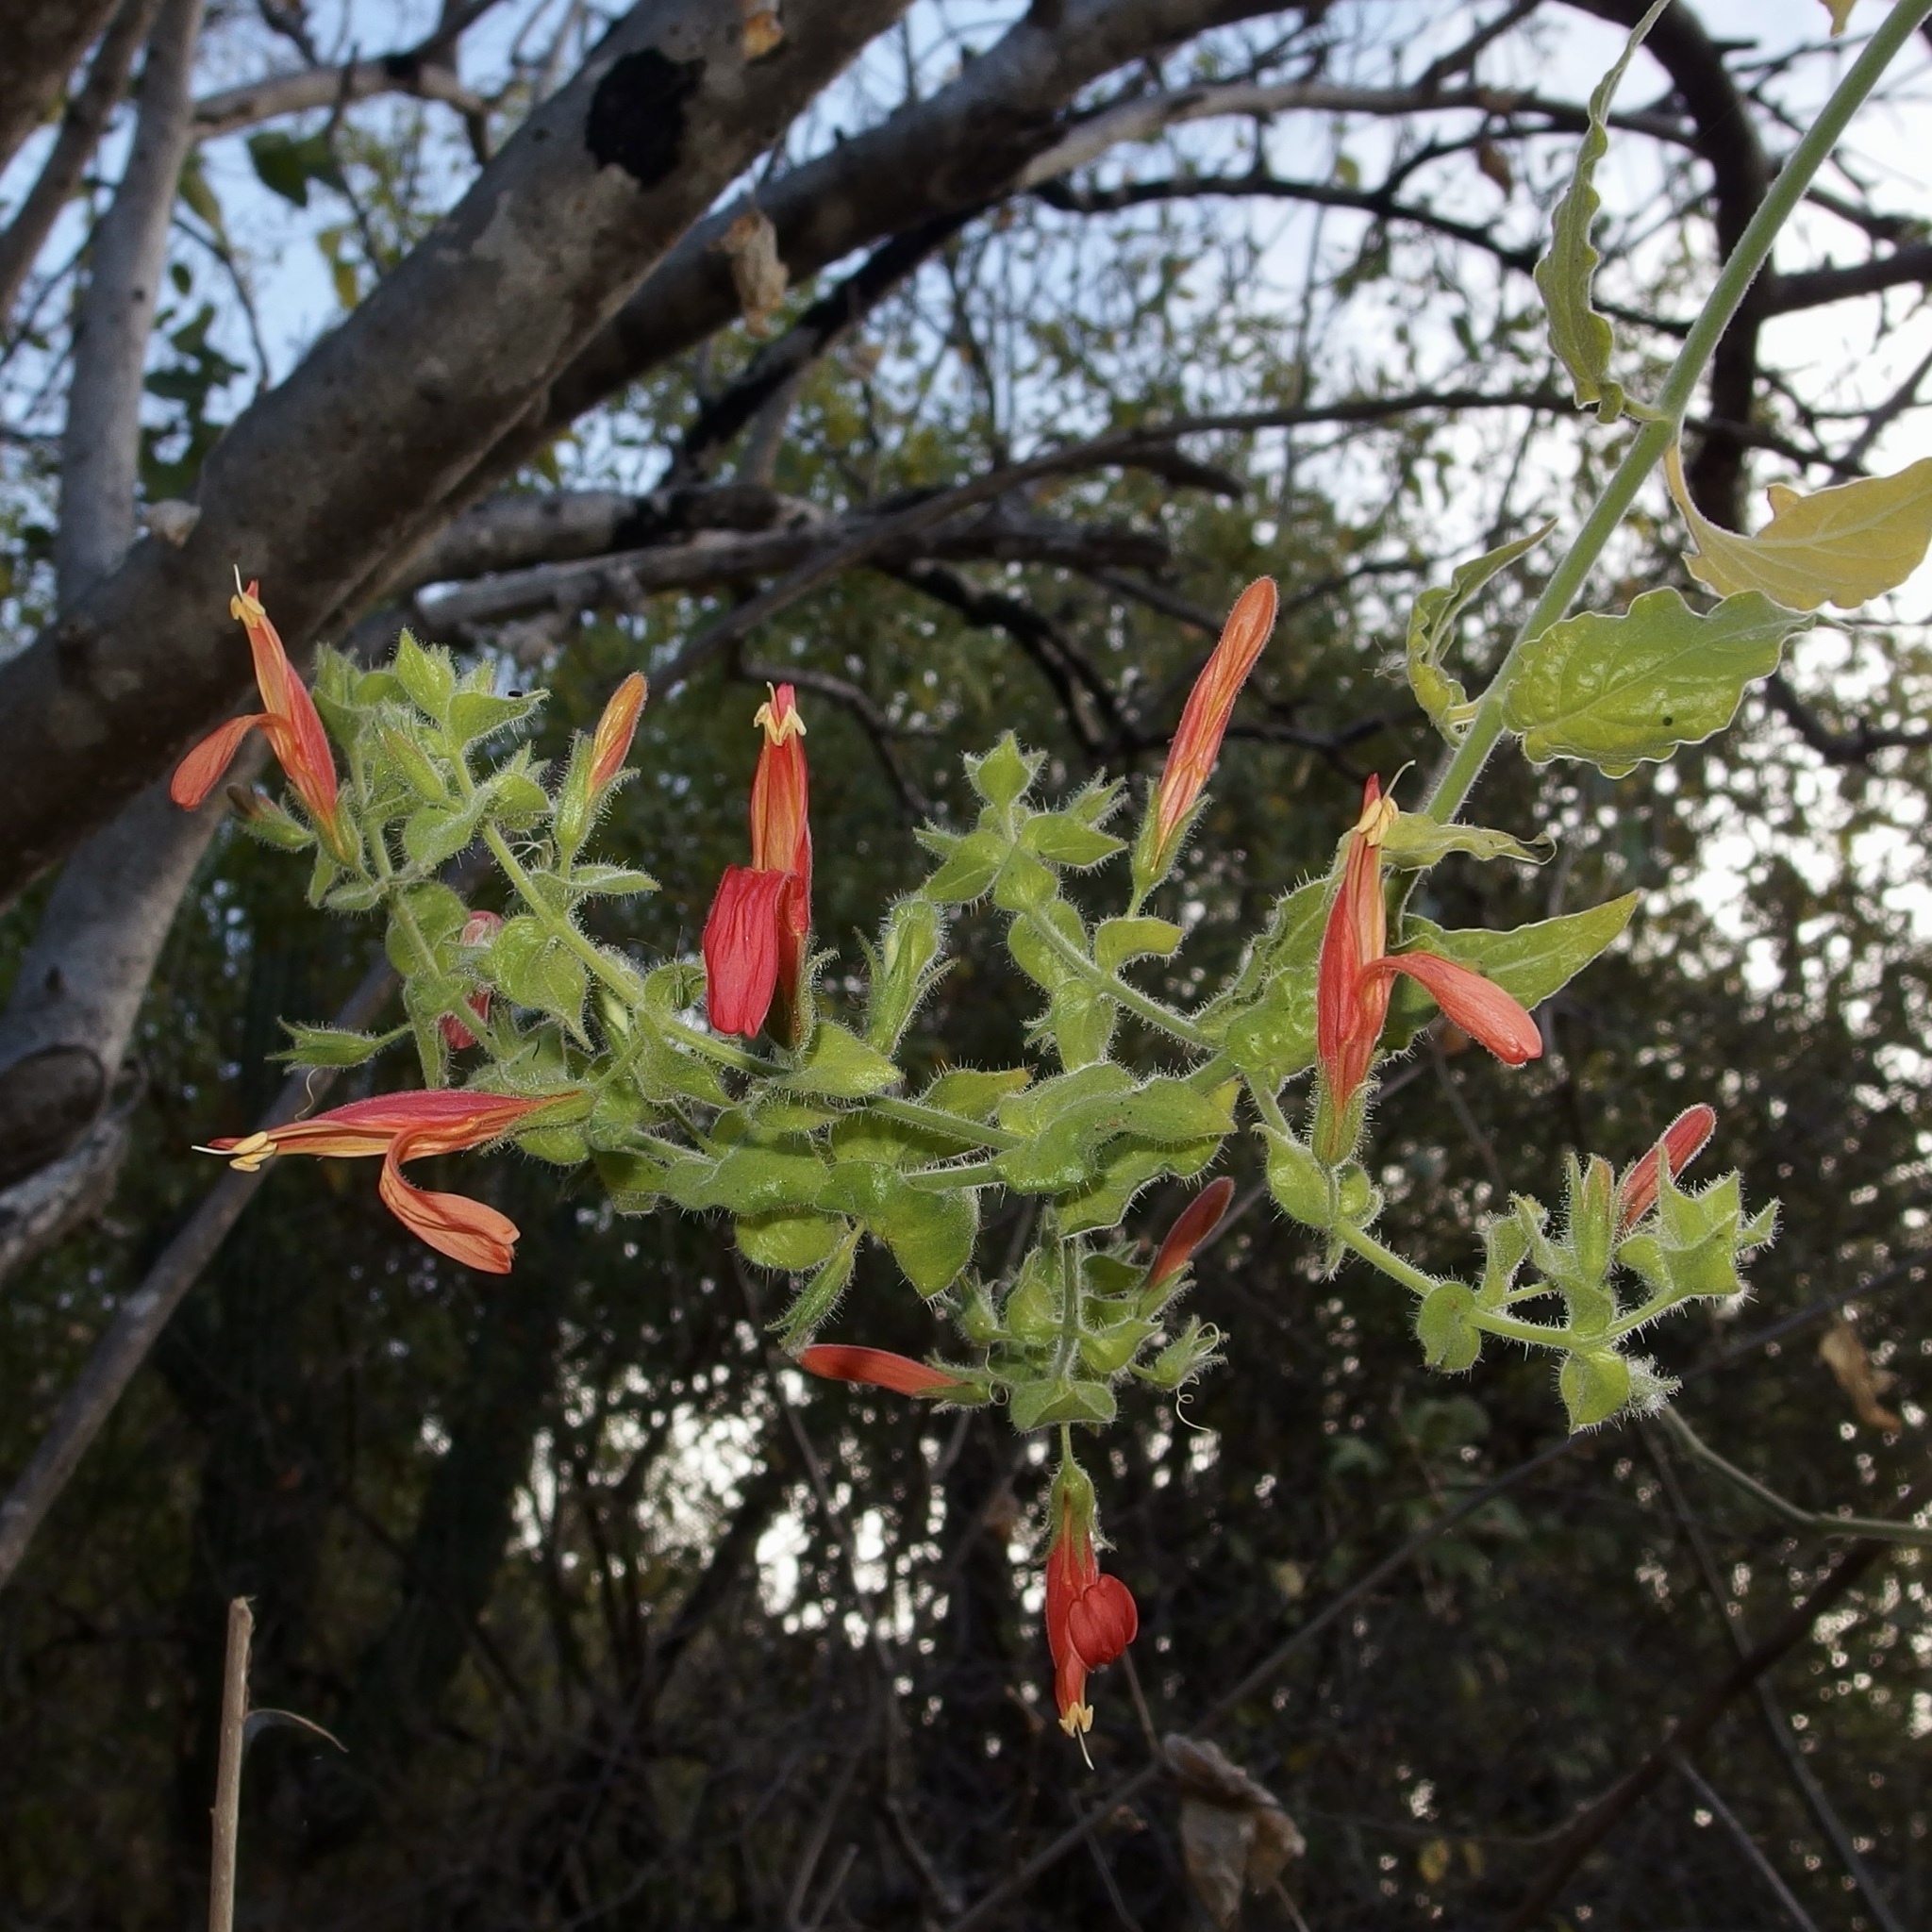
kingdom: Plantae
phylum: Tracheophyta
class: Magnoliopsida
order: Lamiales
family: Acanthaceae
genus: Justicia
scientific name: Justicia purpusii
